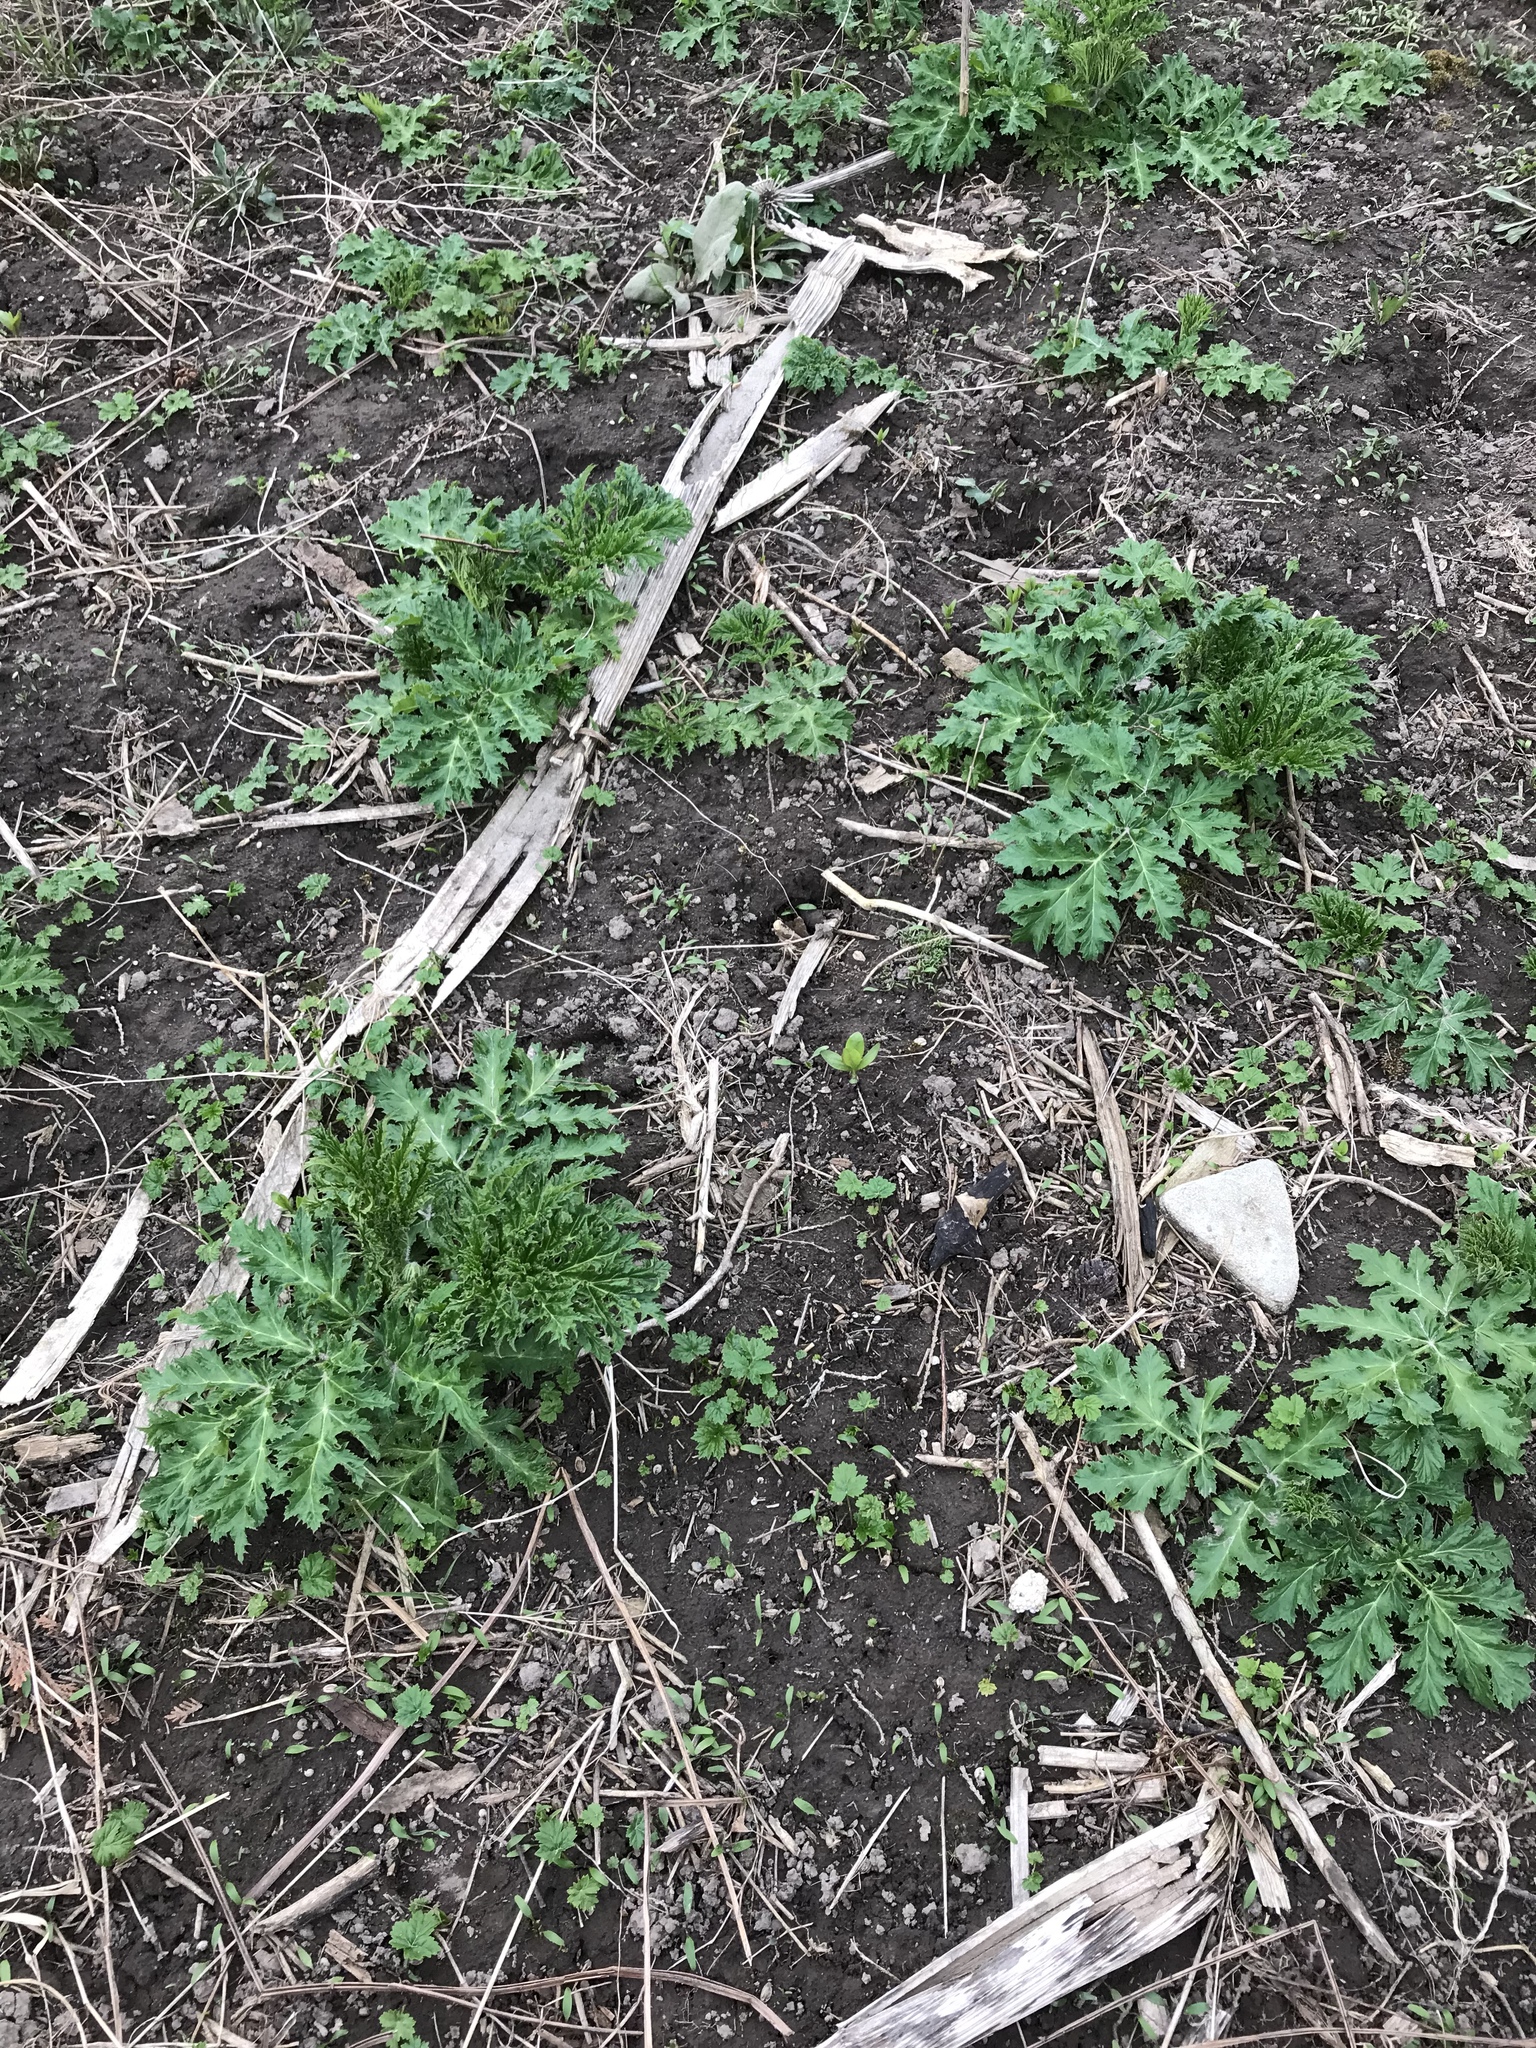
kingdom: Plantae
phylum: Tracheophyta
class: Magnoliopsida
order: Apiales
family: Apiaceae
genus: Heracleum
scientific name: Heracleum mantegazzianum
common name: Giant hogweed
